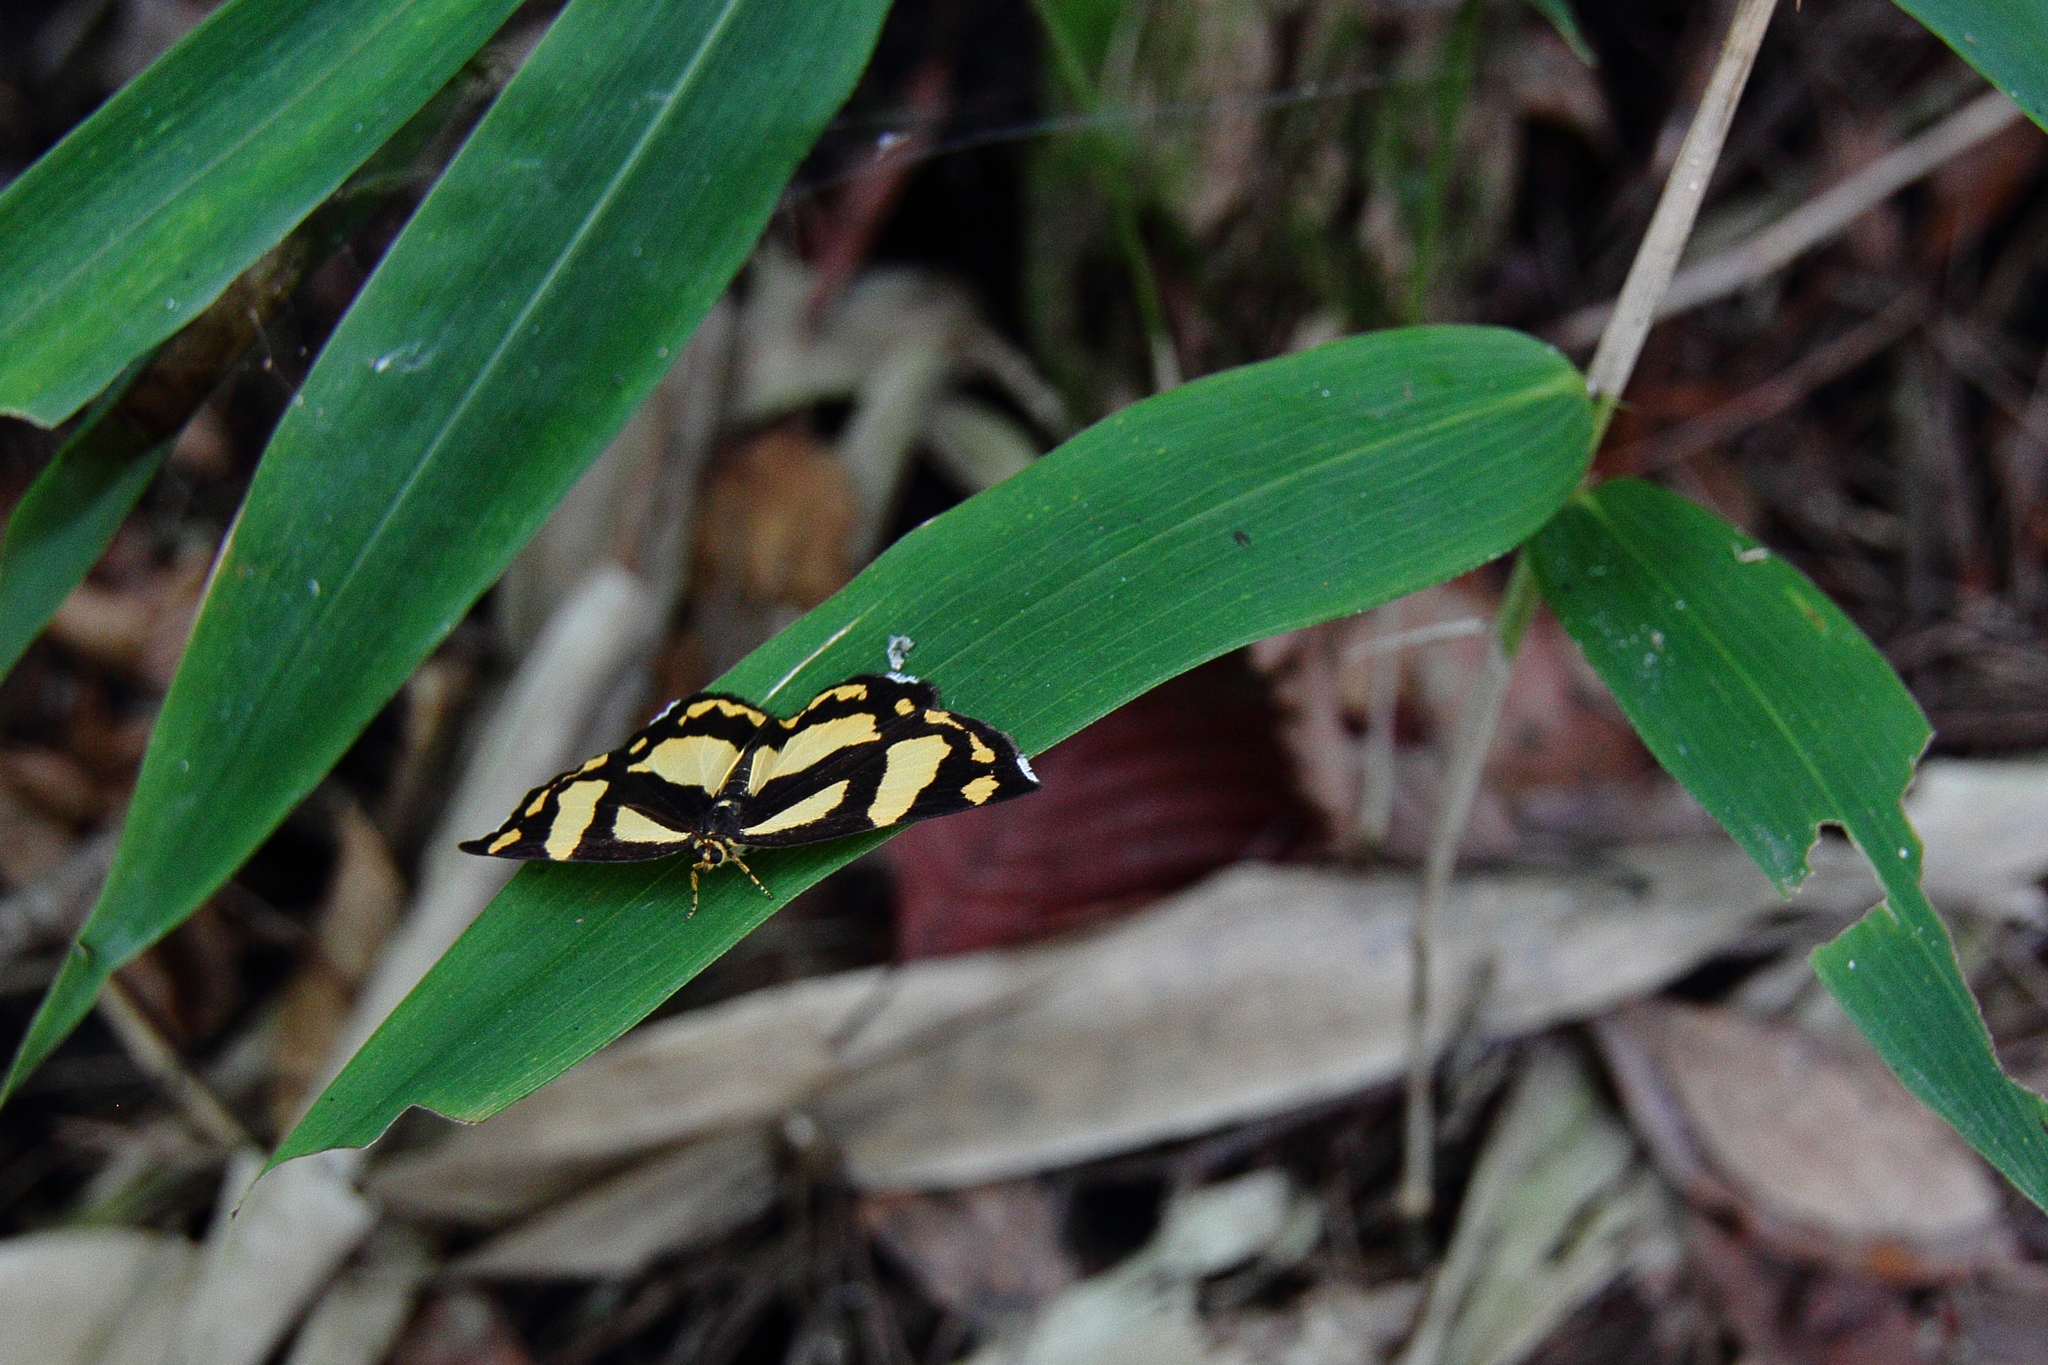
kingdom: Animalia
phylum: Arthropoda
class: Insecta
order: Lepidoptera
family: Epicopeiidae
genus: Psychostrophia
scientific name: Psychostrophia melanargia
